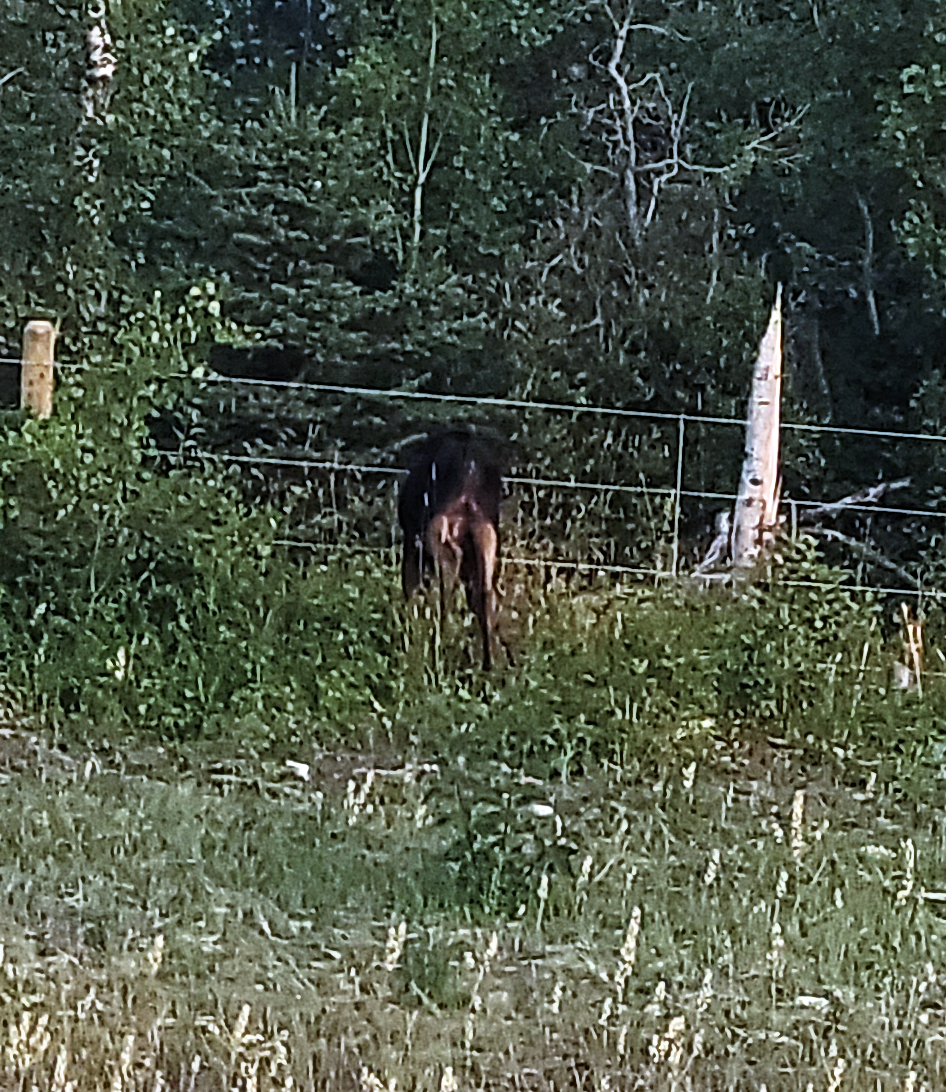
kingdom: Animalia
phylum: Chordata
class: Mammalia
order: Artiodactyla
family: Cervidae
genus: Alces
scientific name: Alces alces
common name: Moose
